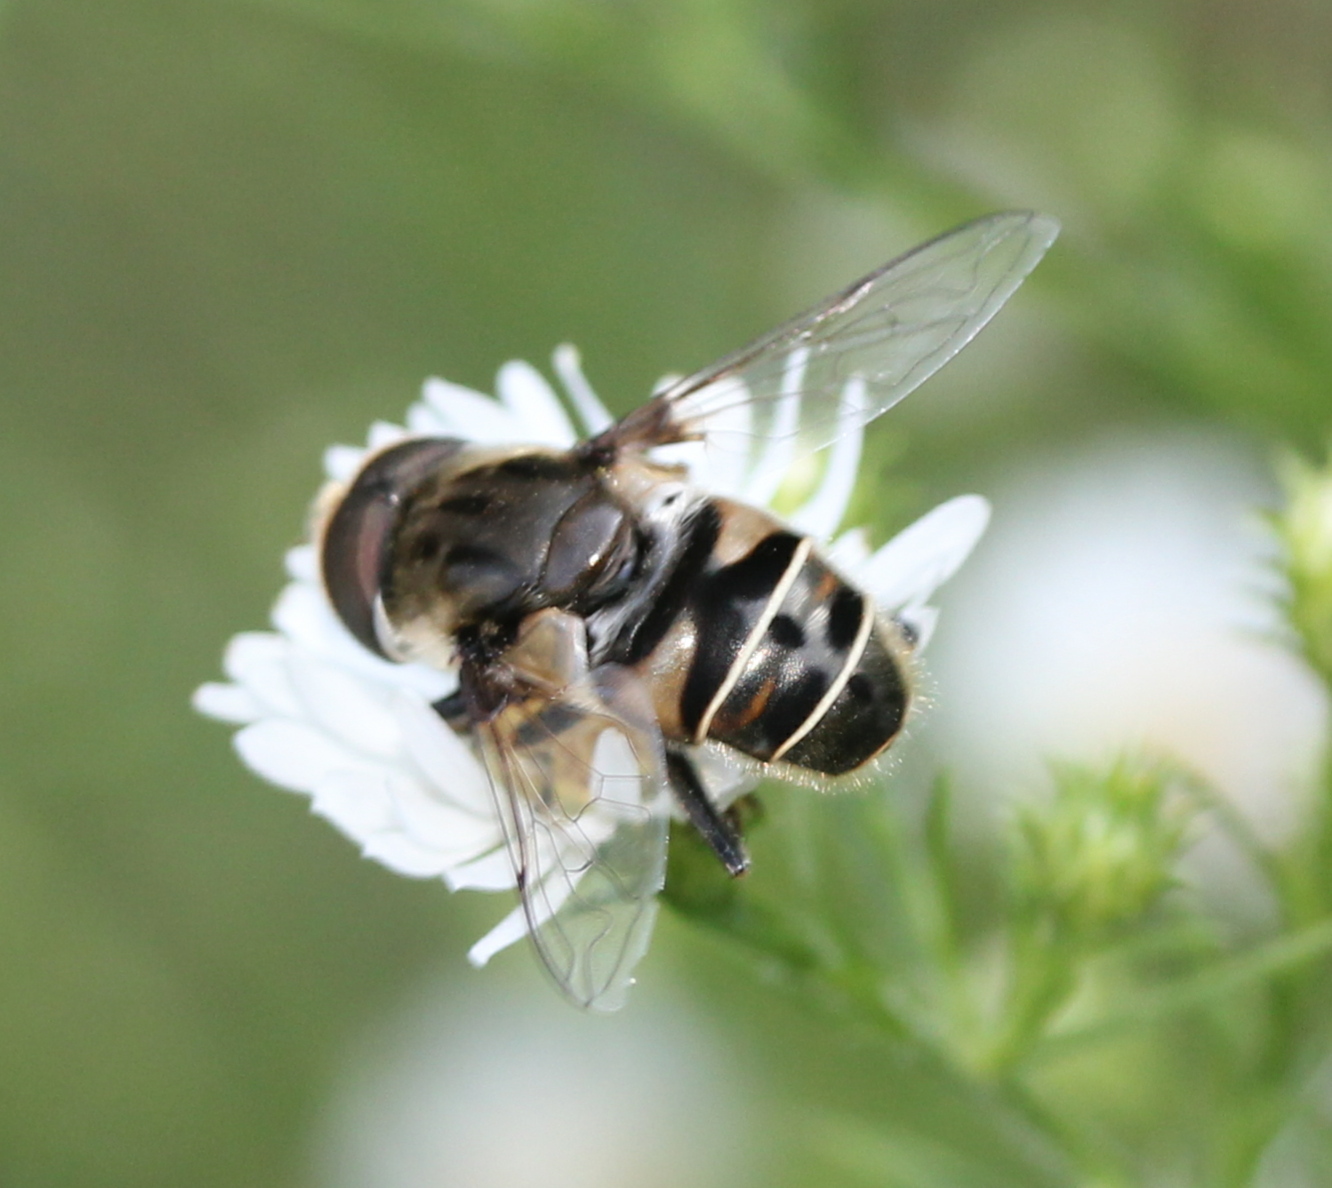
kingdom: Animalia
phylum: Arthropoda
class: Insecta
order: Diptera
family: Syrphidae
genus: Eristalis
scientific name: Eristalis dimidiata
